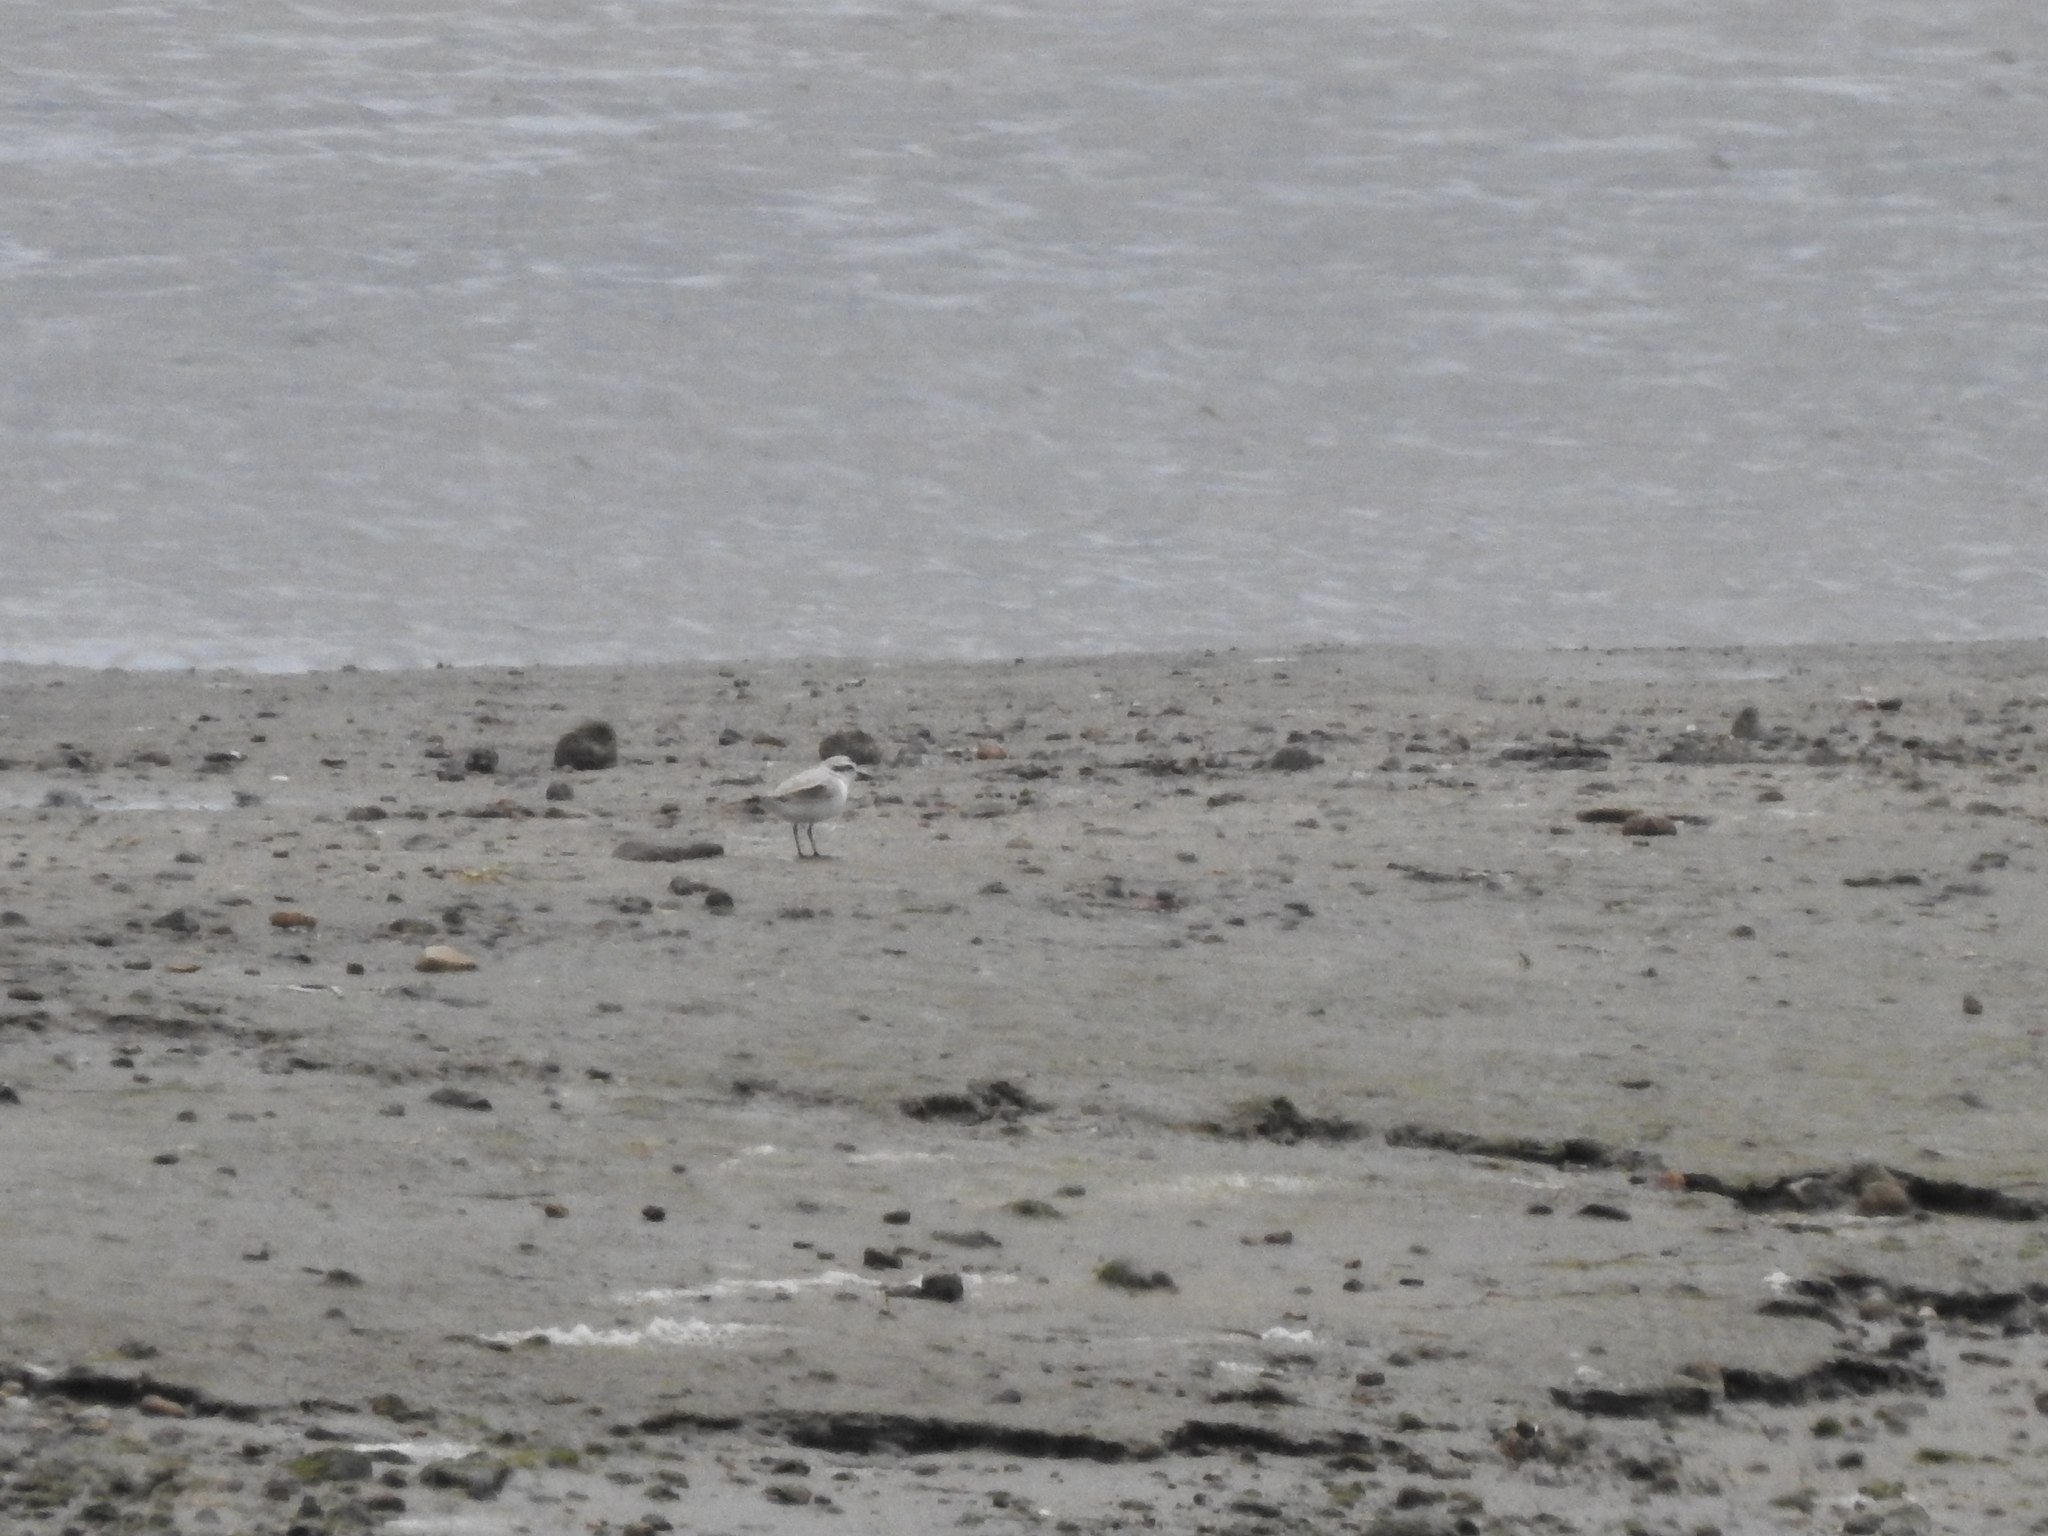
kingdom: Animalia
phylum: Chordata
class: Aves
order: Charadriiformes
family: Charadriidae
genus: Anarhynchus
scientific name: Anarhynchus
